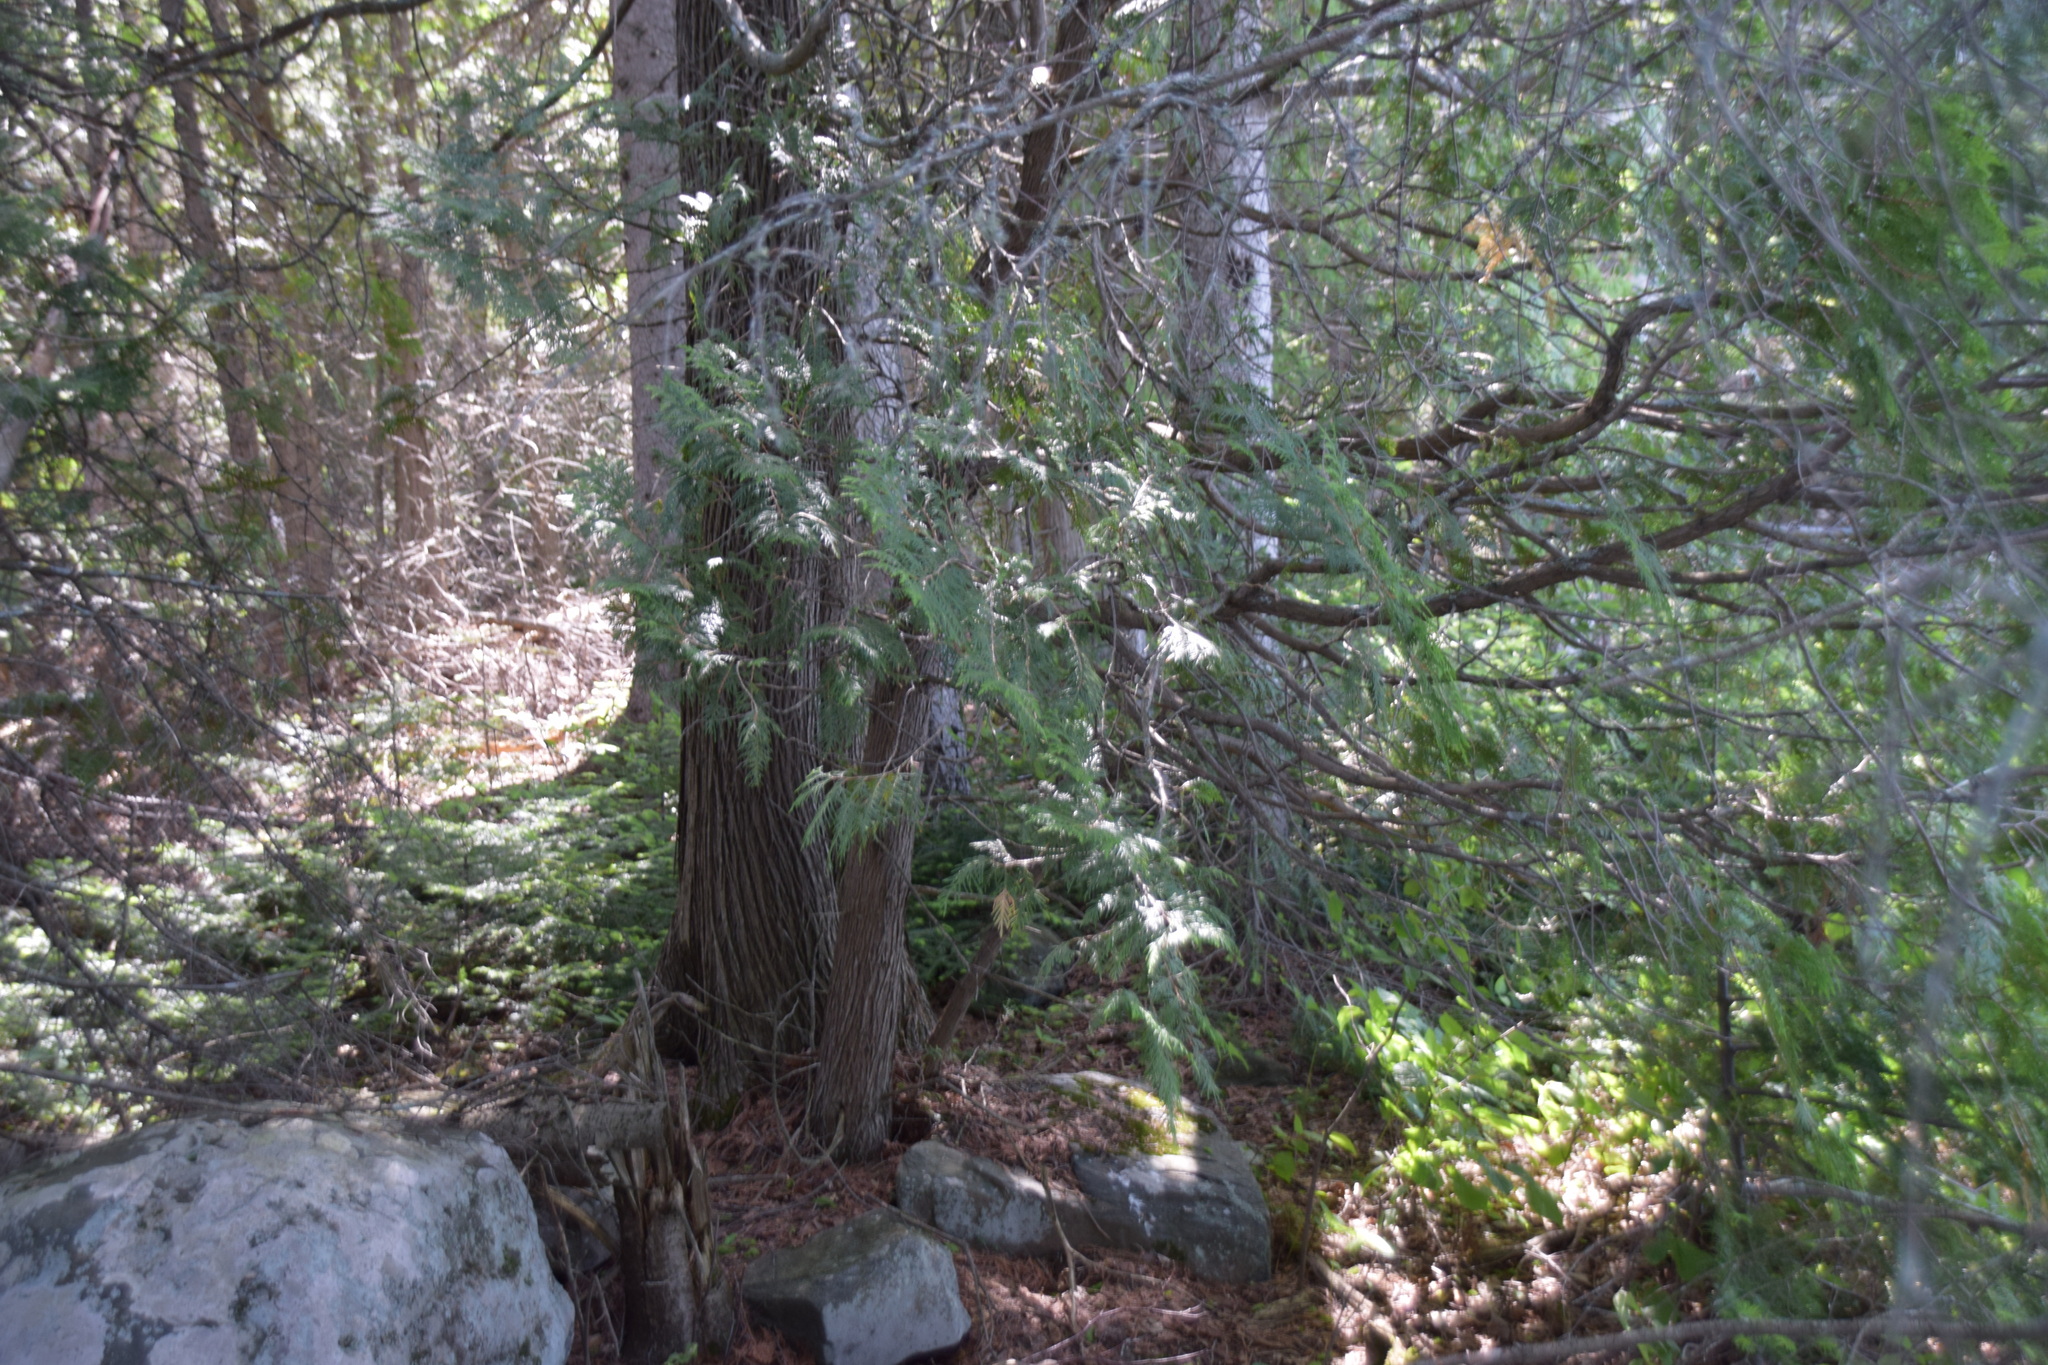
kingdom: Plantae
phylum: Tracheophyta
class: Pinopsida
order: Pinales
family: Cupressaceae
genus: Thuja
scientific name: Thuja occidentalis
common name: Northern white-cedar
